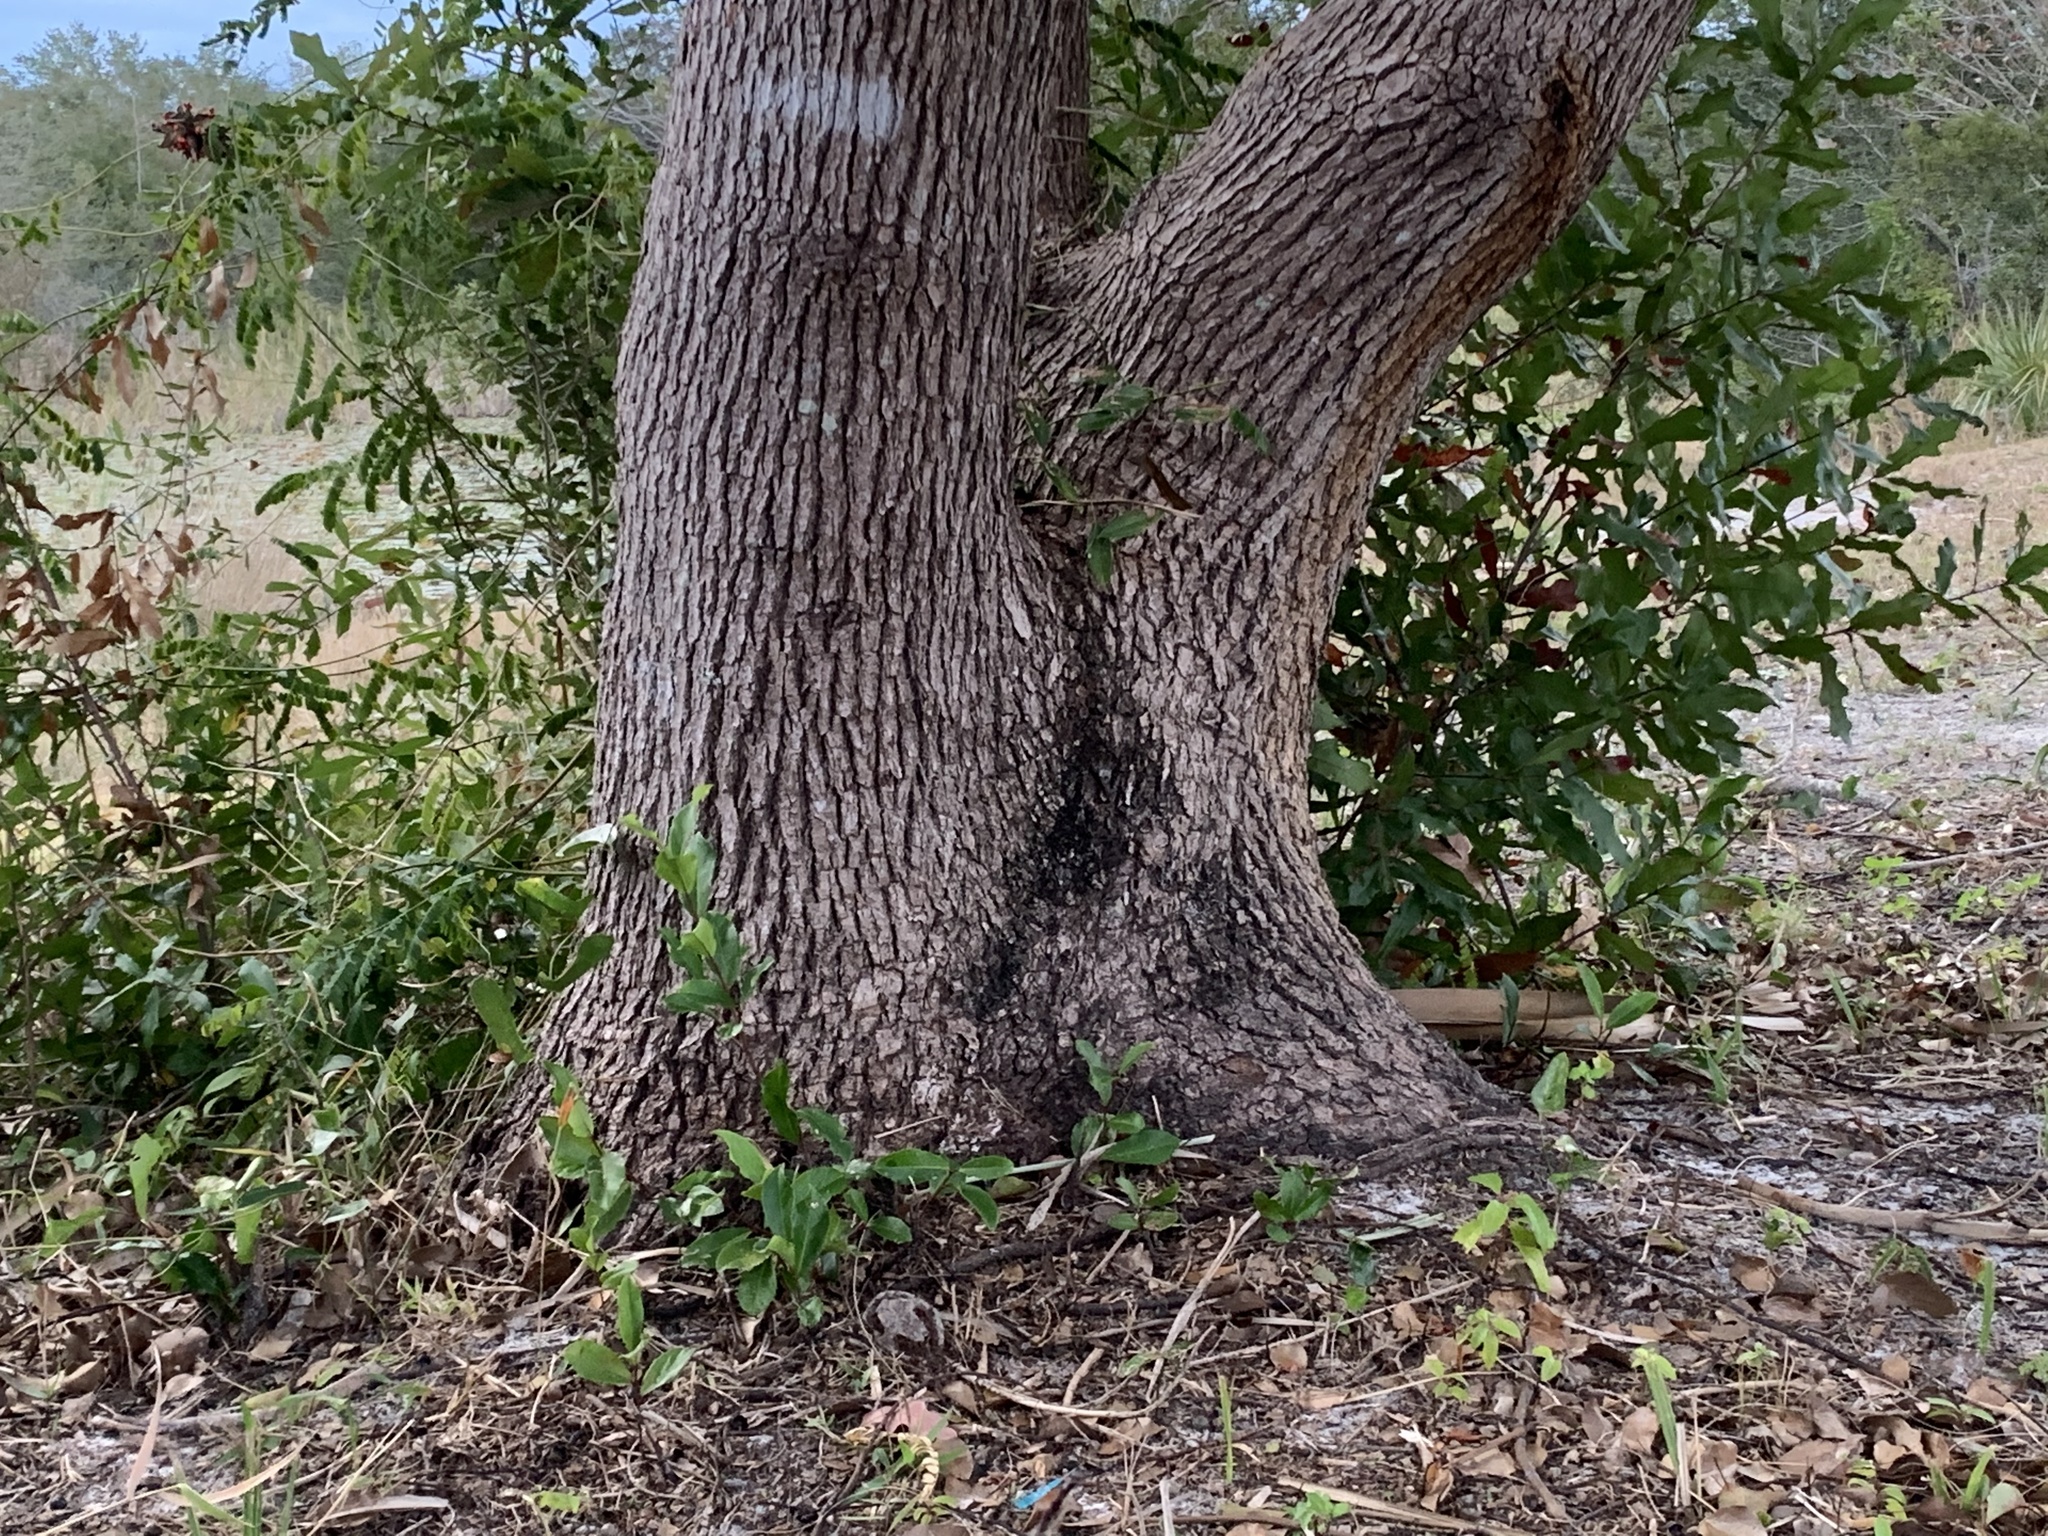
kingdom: Plantae
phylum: Tracheophyta
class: Magnoliopsida
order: Laurales
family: Lauraceae
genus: Cinnamomum
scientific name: Cinnamomum camphora
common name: Camphortree
